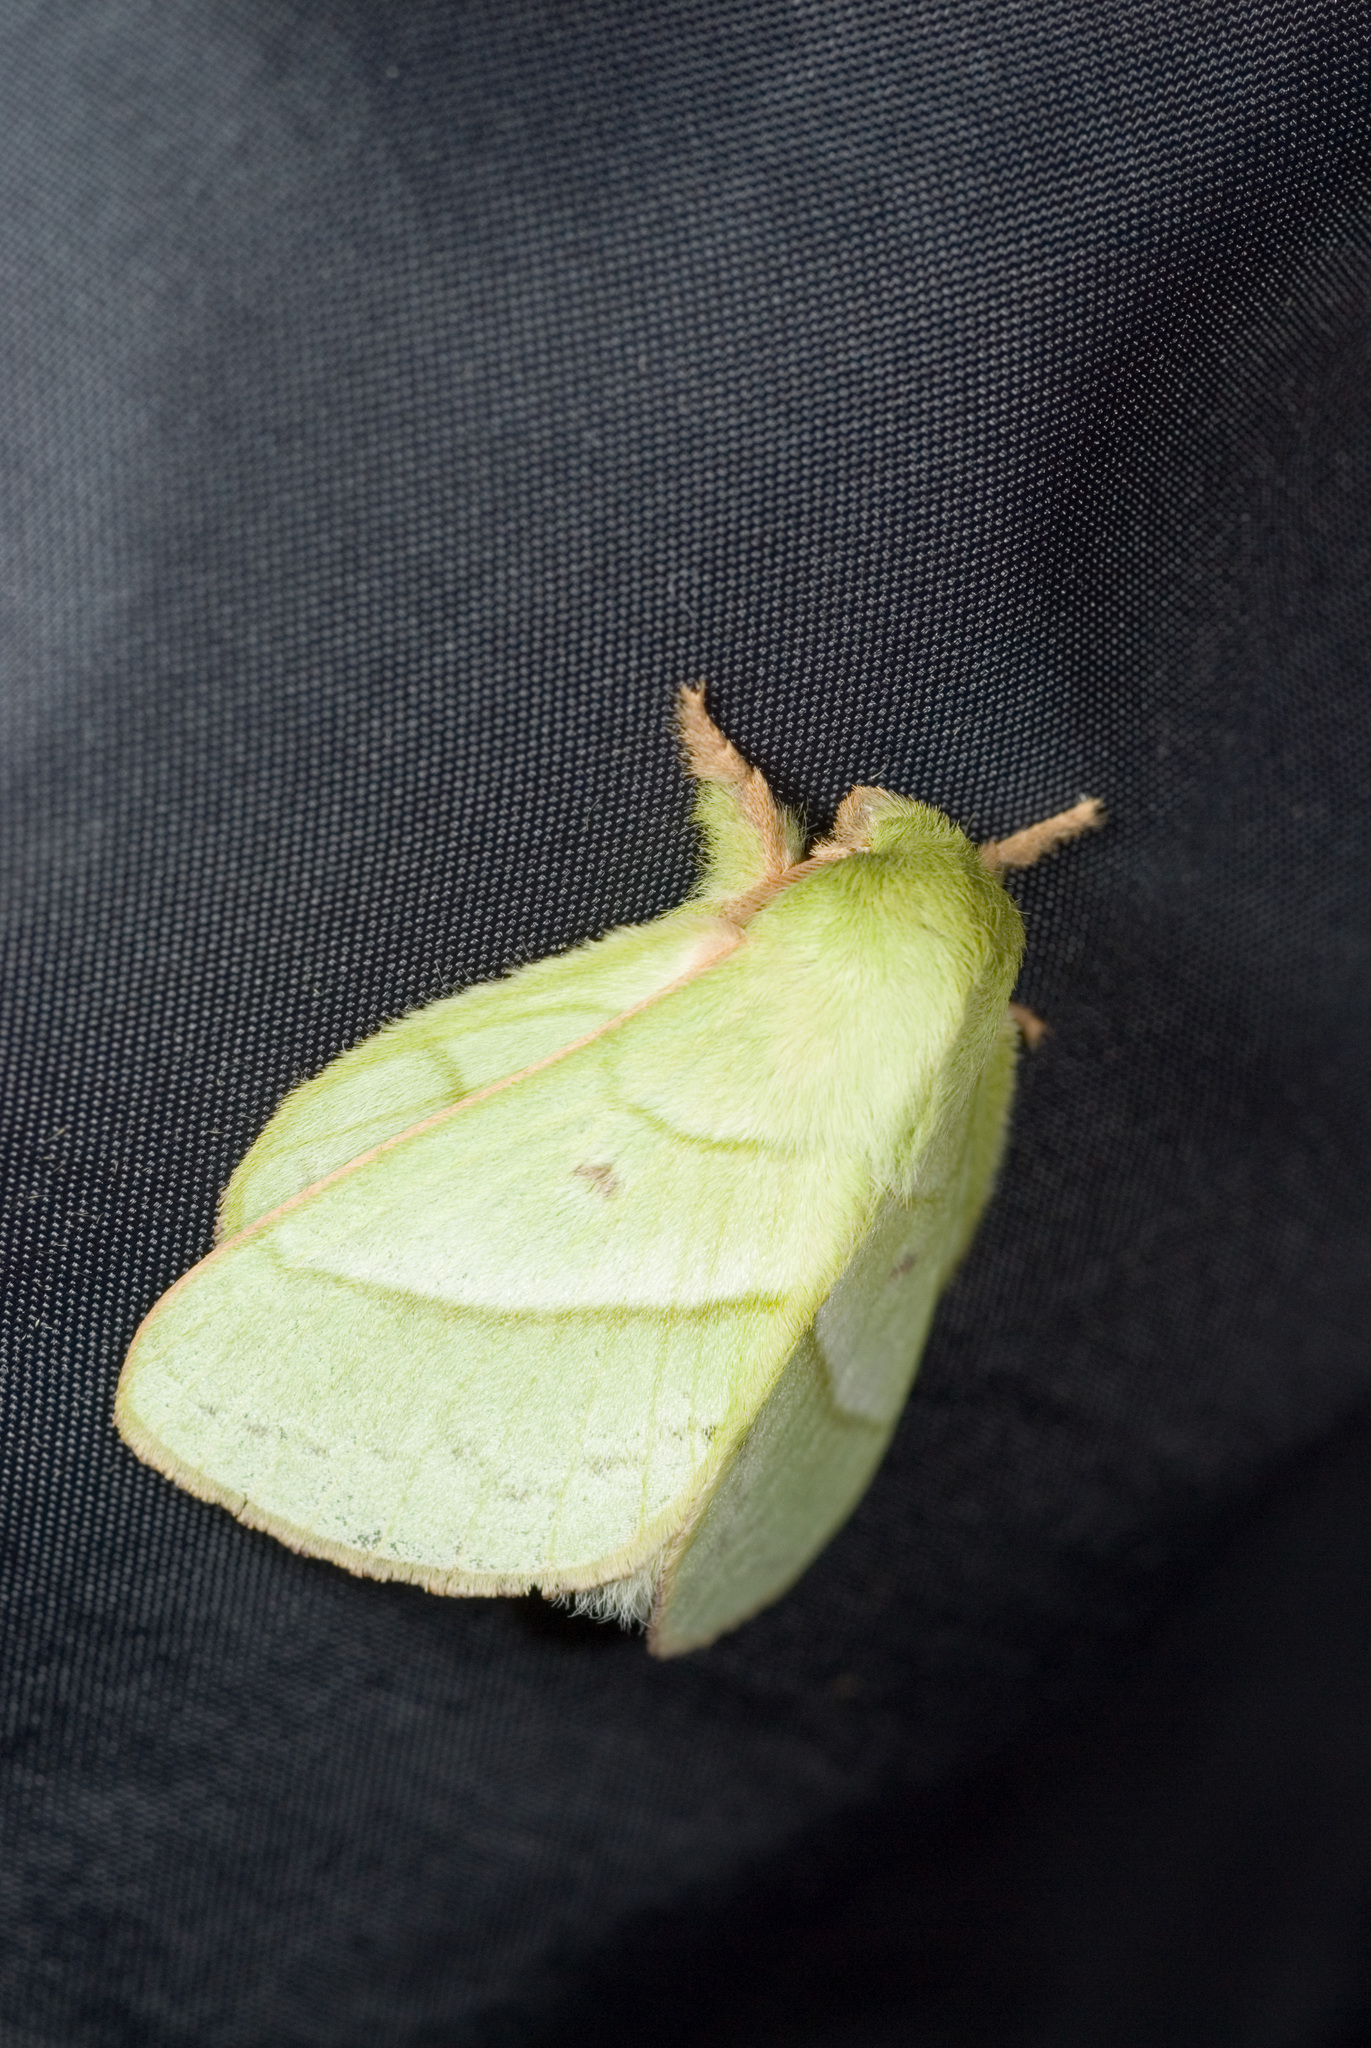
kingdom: Animalia
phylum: Arthropoda
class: Insecta
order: Lepidoptera
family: Lasiocampidae
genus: Trabala
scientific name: Trabala vishnou
